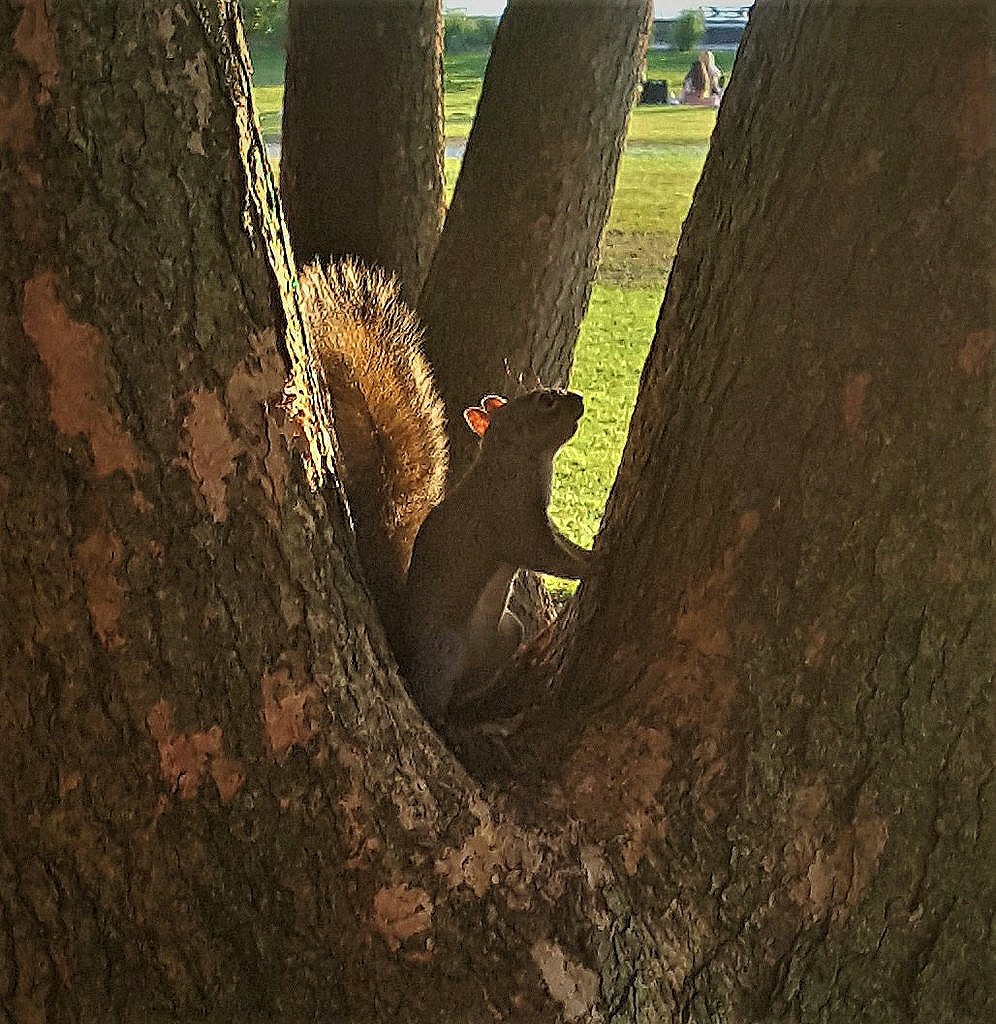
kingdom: Animalia
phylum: Chordata
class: Mammalia
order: Rodentia
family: Sciuridae
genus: Sciurus
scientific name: Sciurus carolinensis
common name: Eastern gray squirrel
